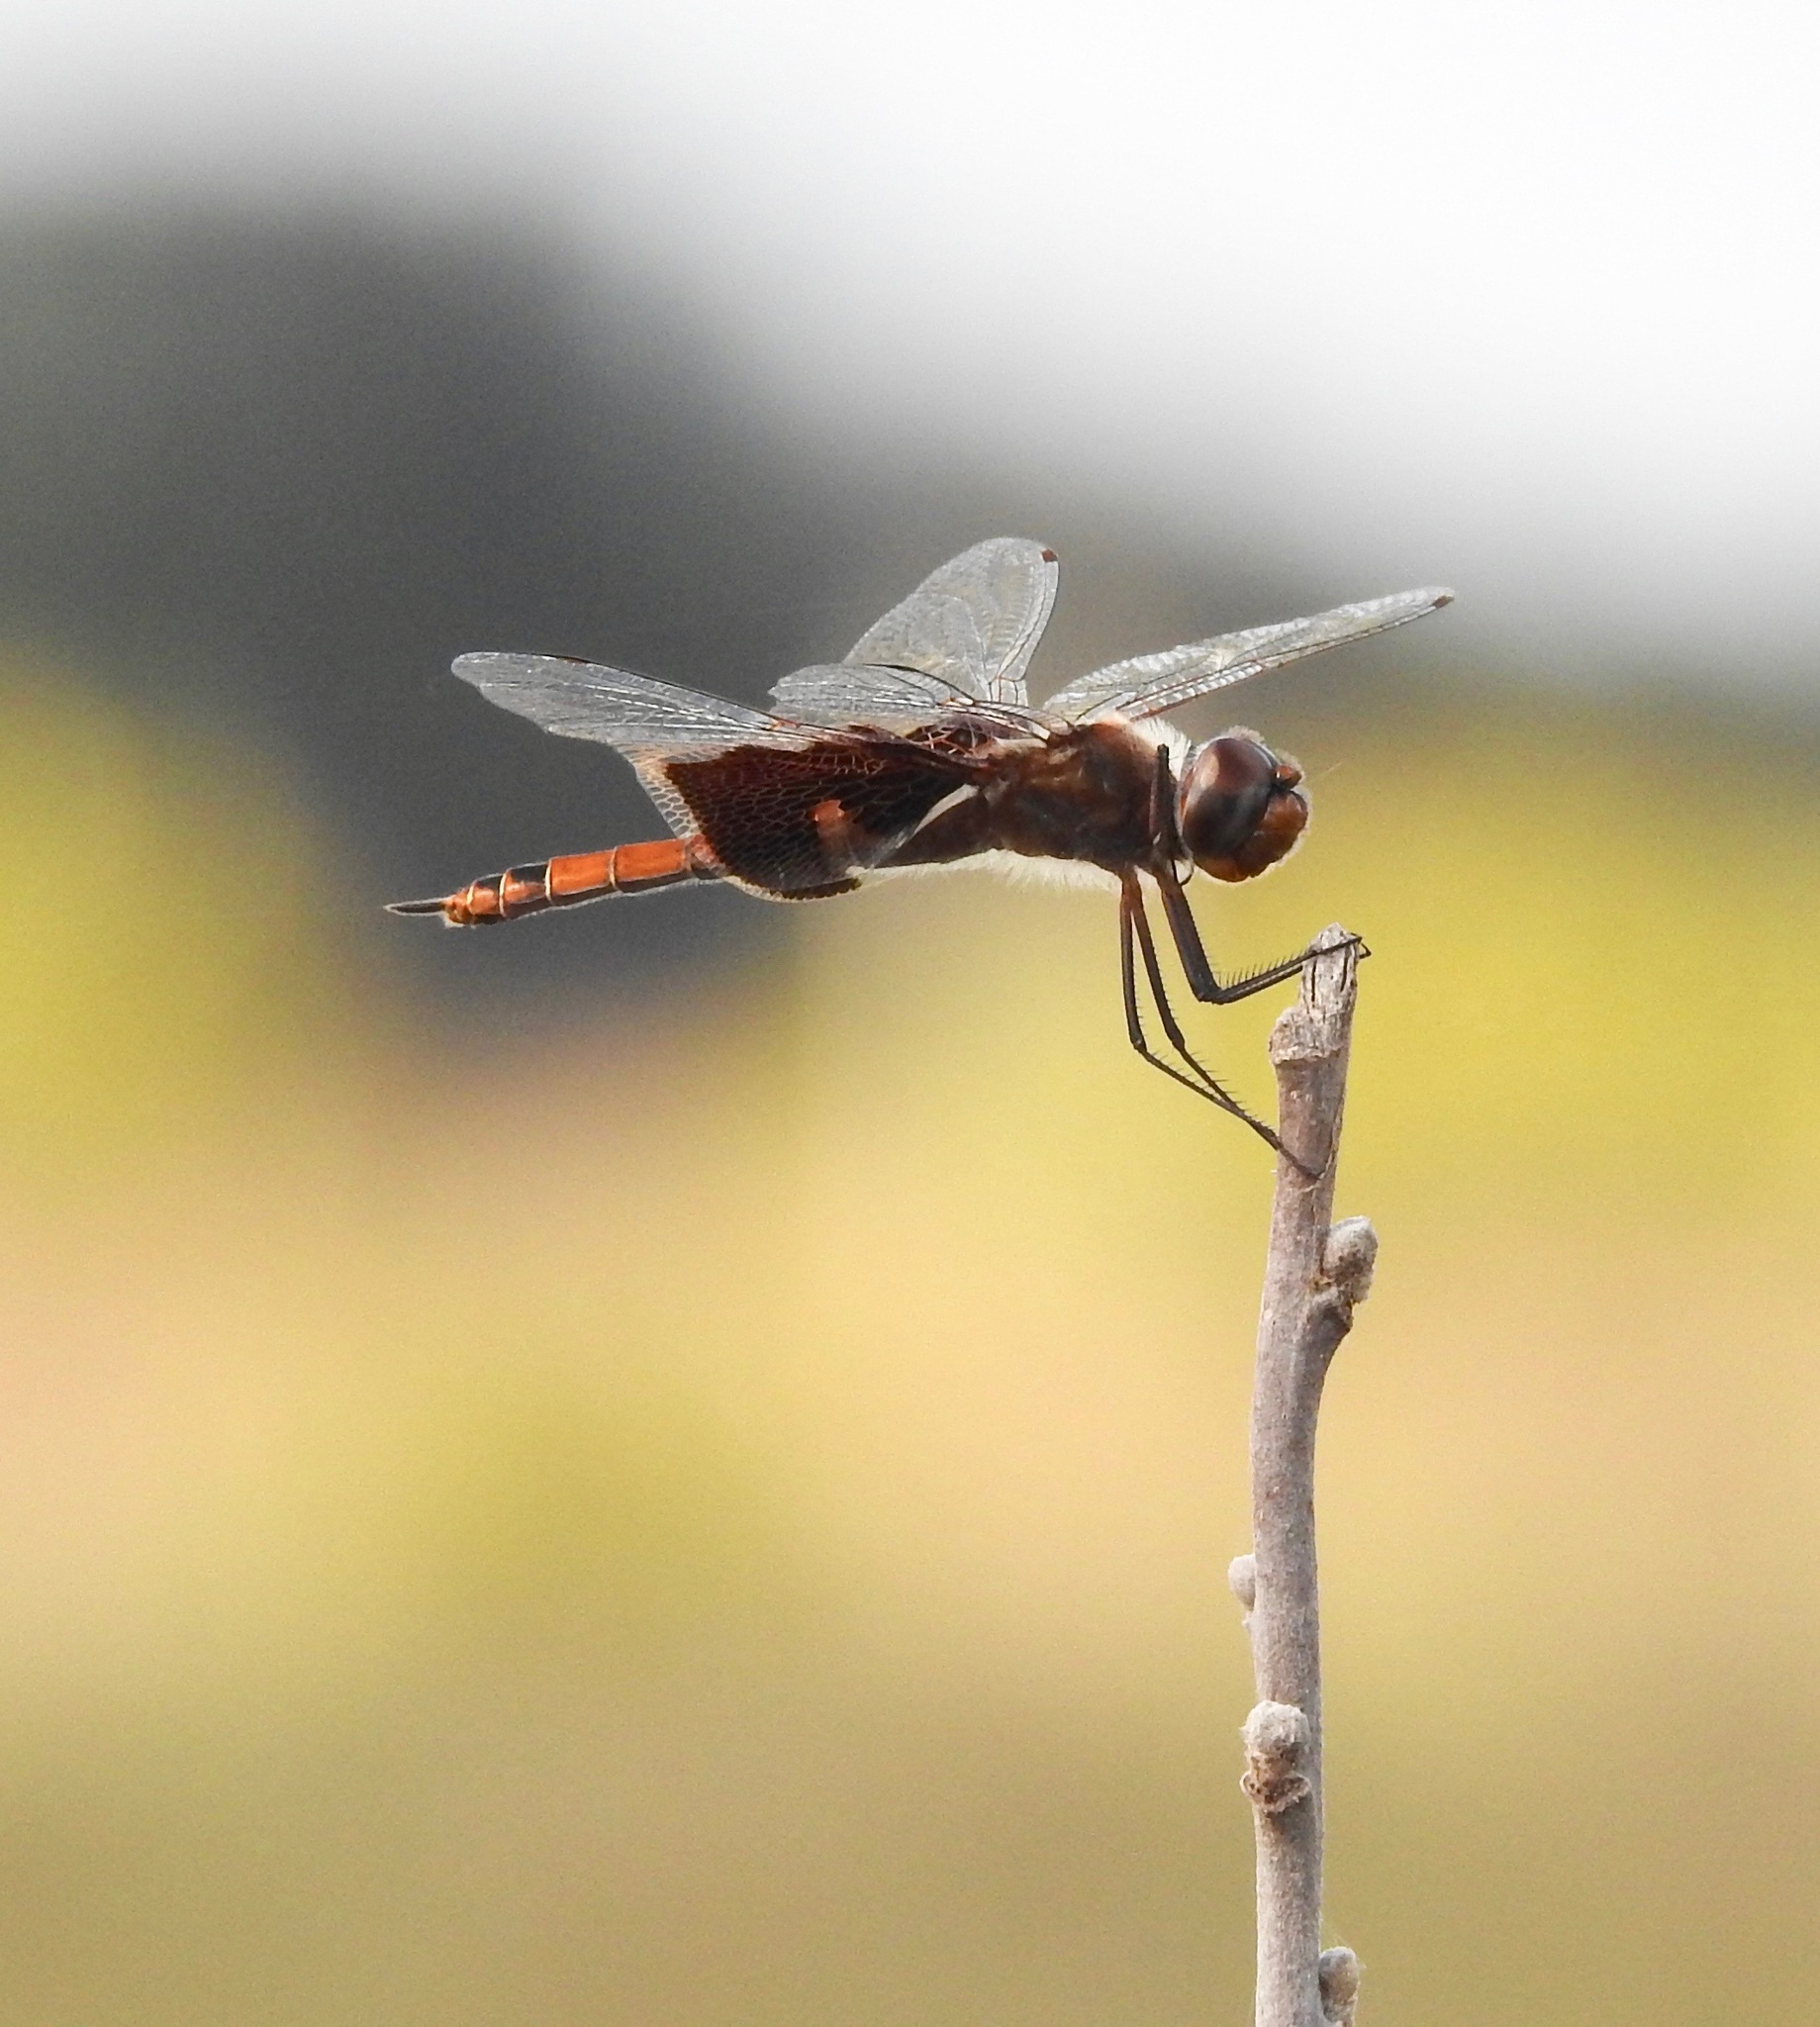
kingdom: Animalia
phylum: Arthropoda
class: Insecta
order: Odonata
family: Libellulidae
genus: Tramea
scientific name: Tramea carolina
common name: Carolina saddlebags
